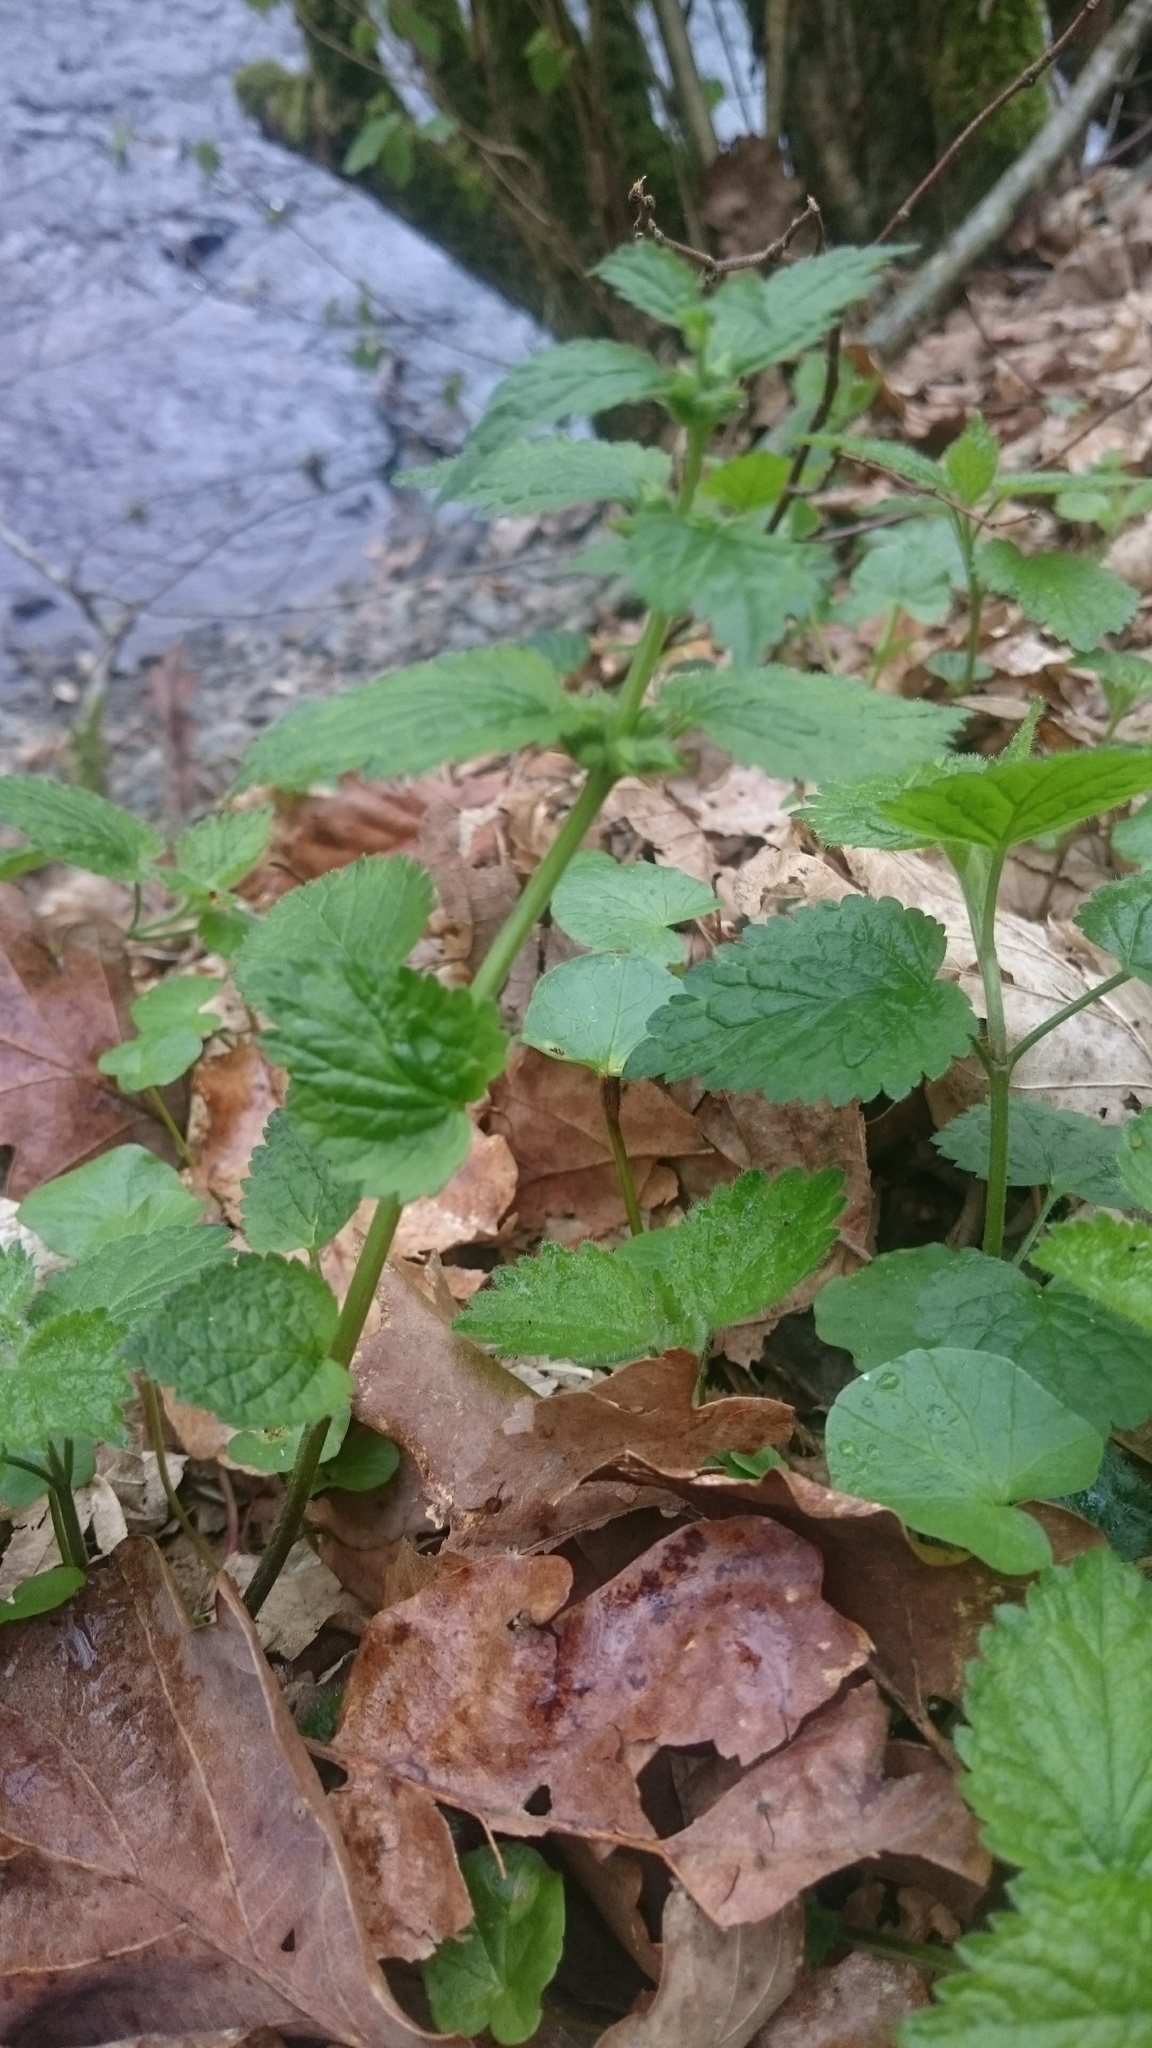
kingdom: Plantae
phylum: Tracheophyta
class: Magnoliopsida
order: Lamiales
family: Lamiaceae
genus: Lamium
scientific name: Lamium galeobdolon
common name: Yellow archangel
